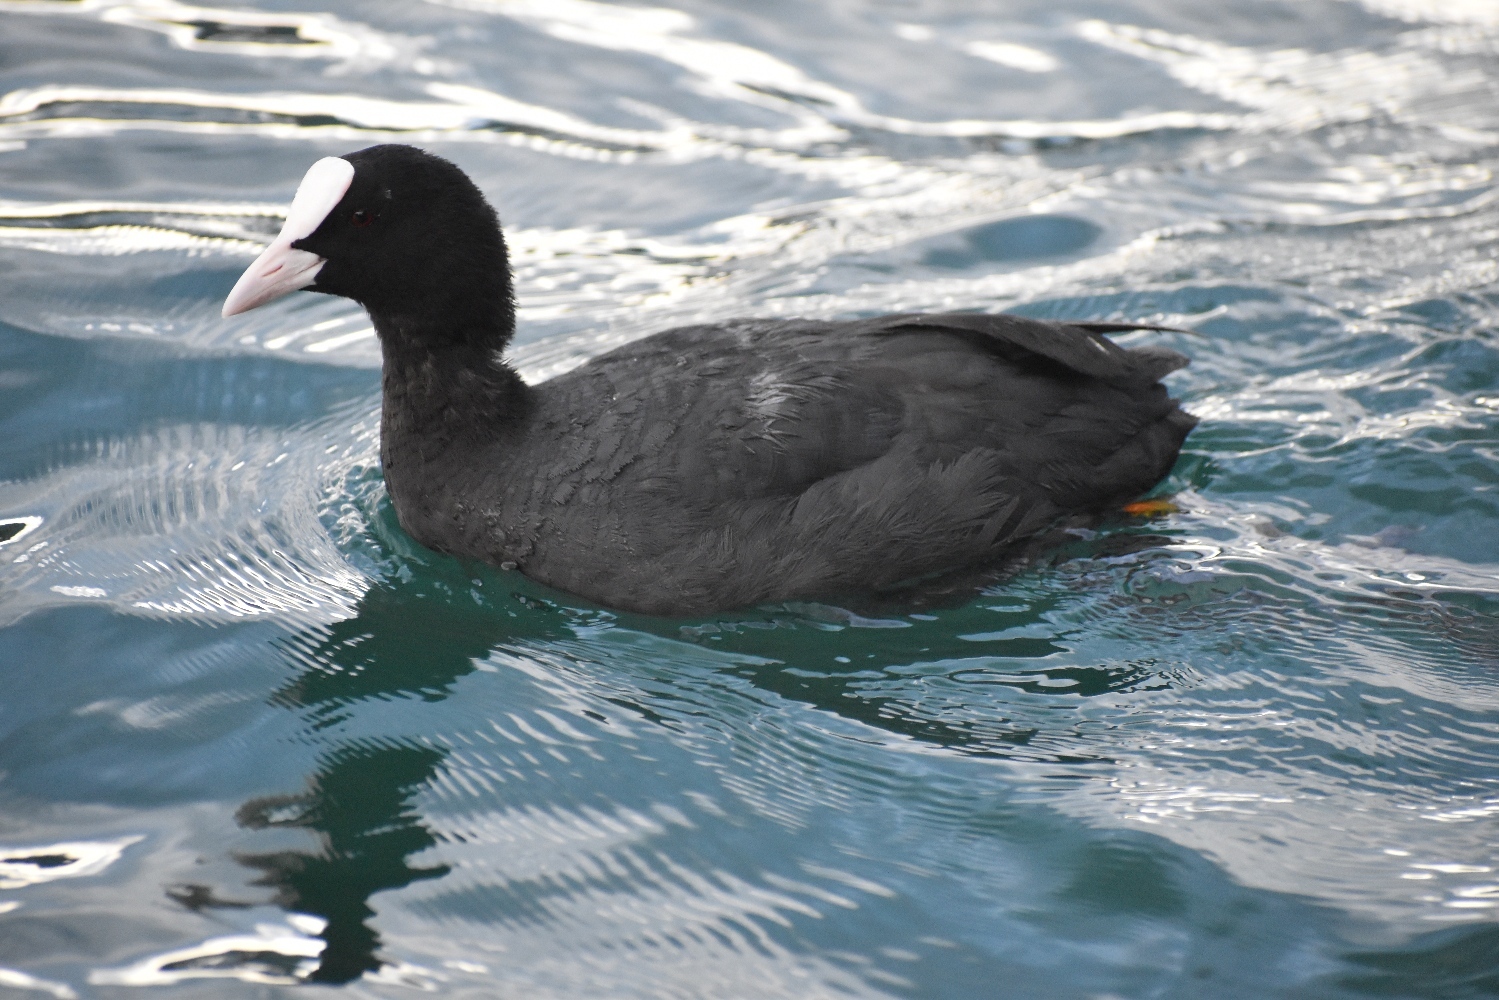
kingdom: Animalia
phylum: Chordata
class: Aves
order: Gruiformes
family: Rallidae
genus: Fulica
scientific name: Fulica atra
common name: Eurasian coot
